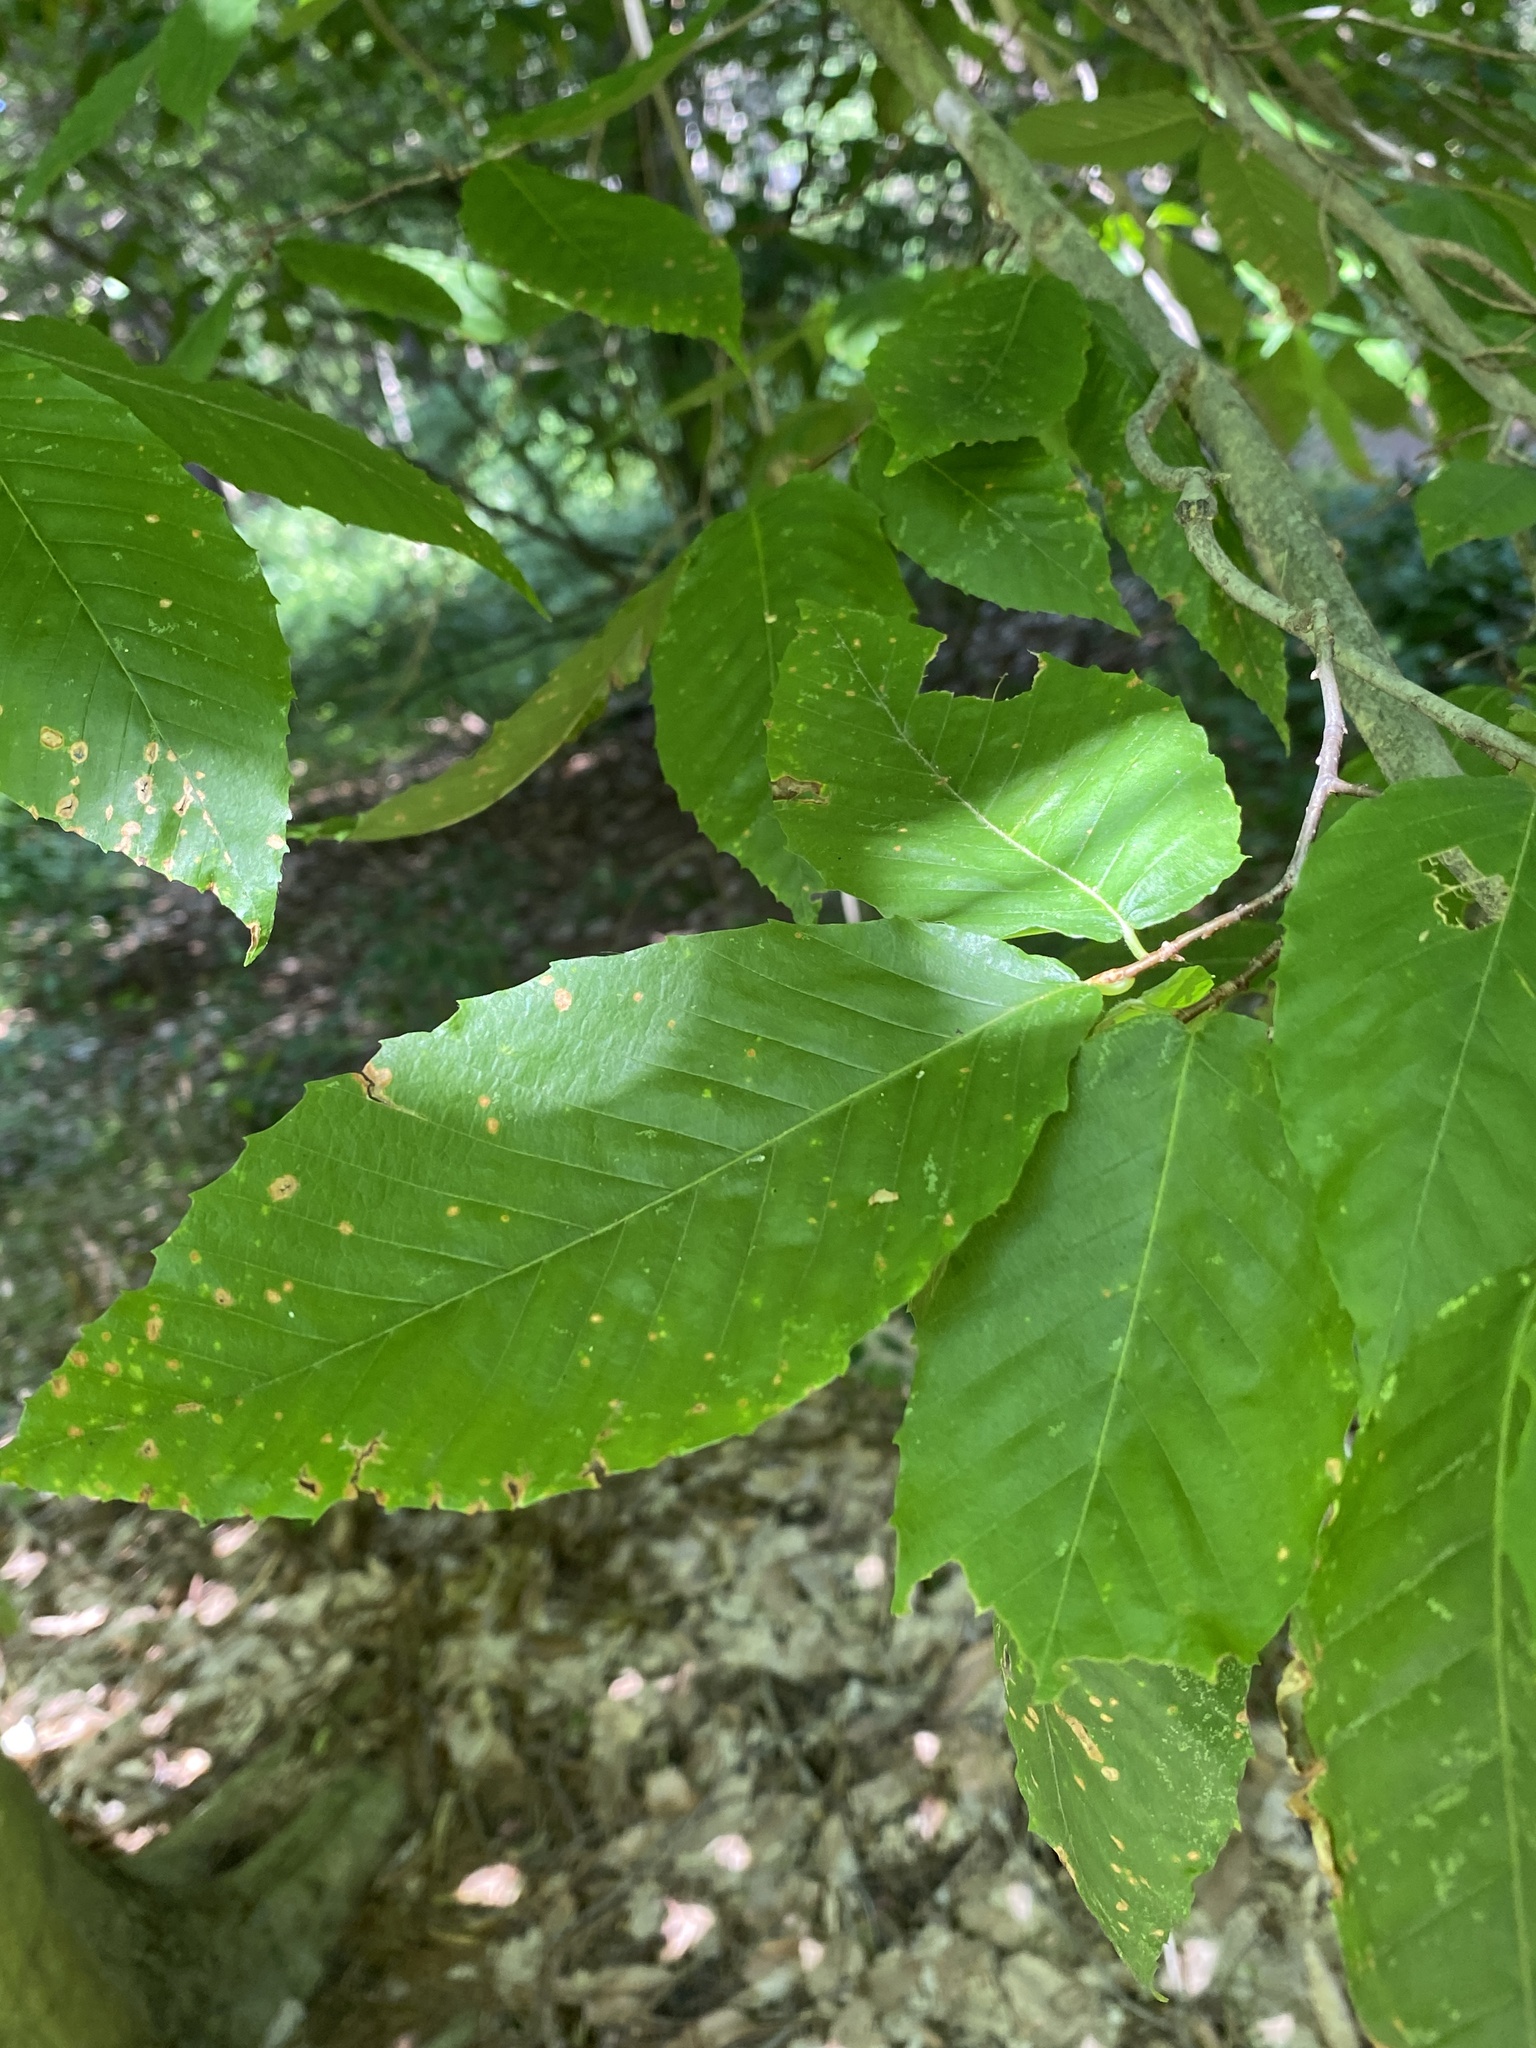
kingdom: Plantae
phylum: Tracheophyta
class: Magnoliopsida
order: Fagales
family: Fagaceae
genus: Fagus
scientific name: Fagus grandifolia
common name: American beech
